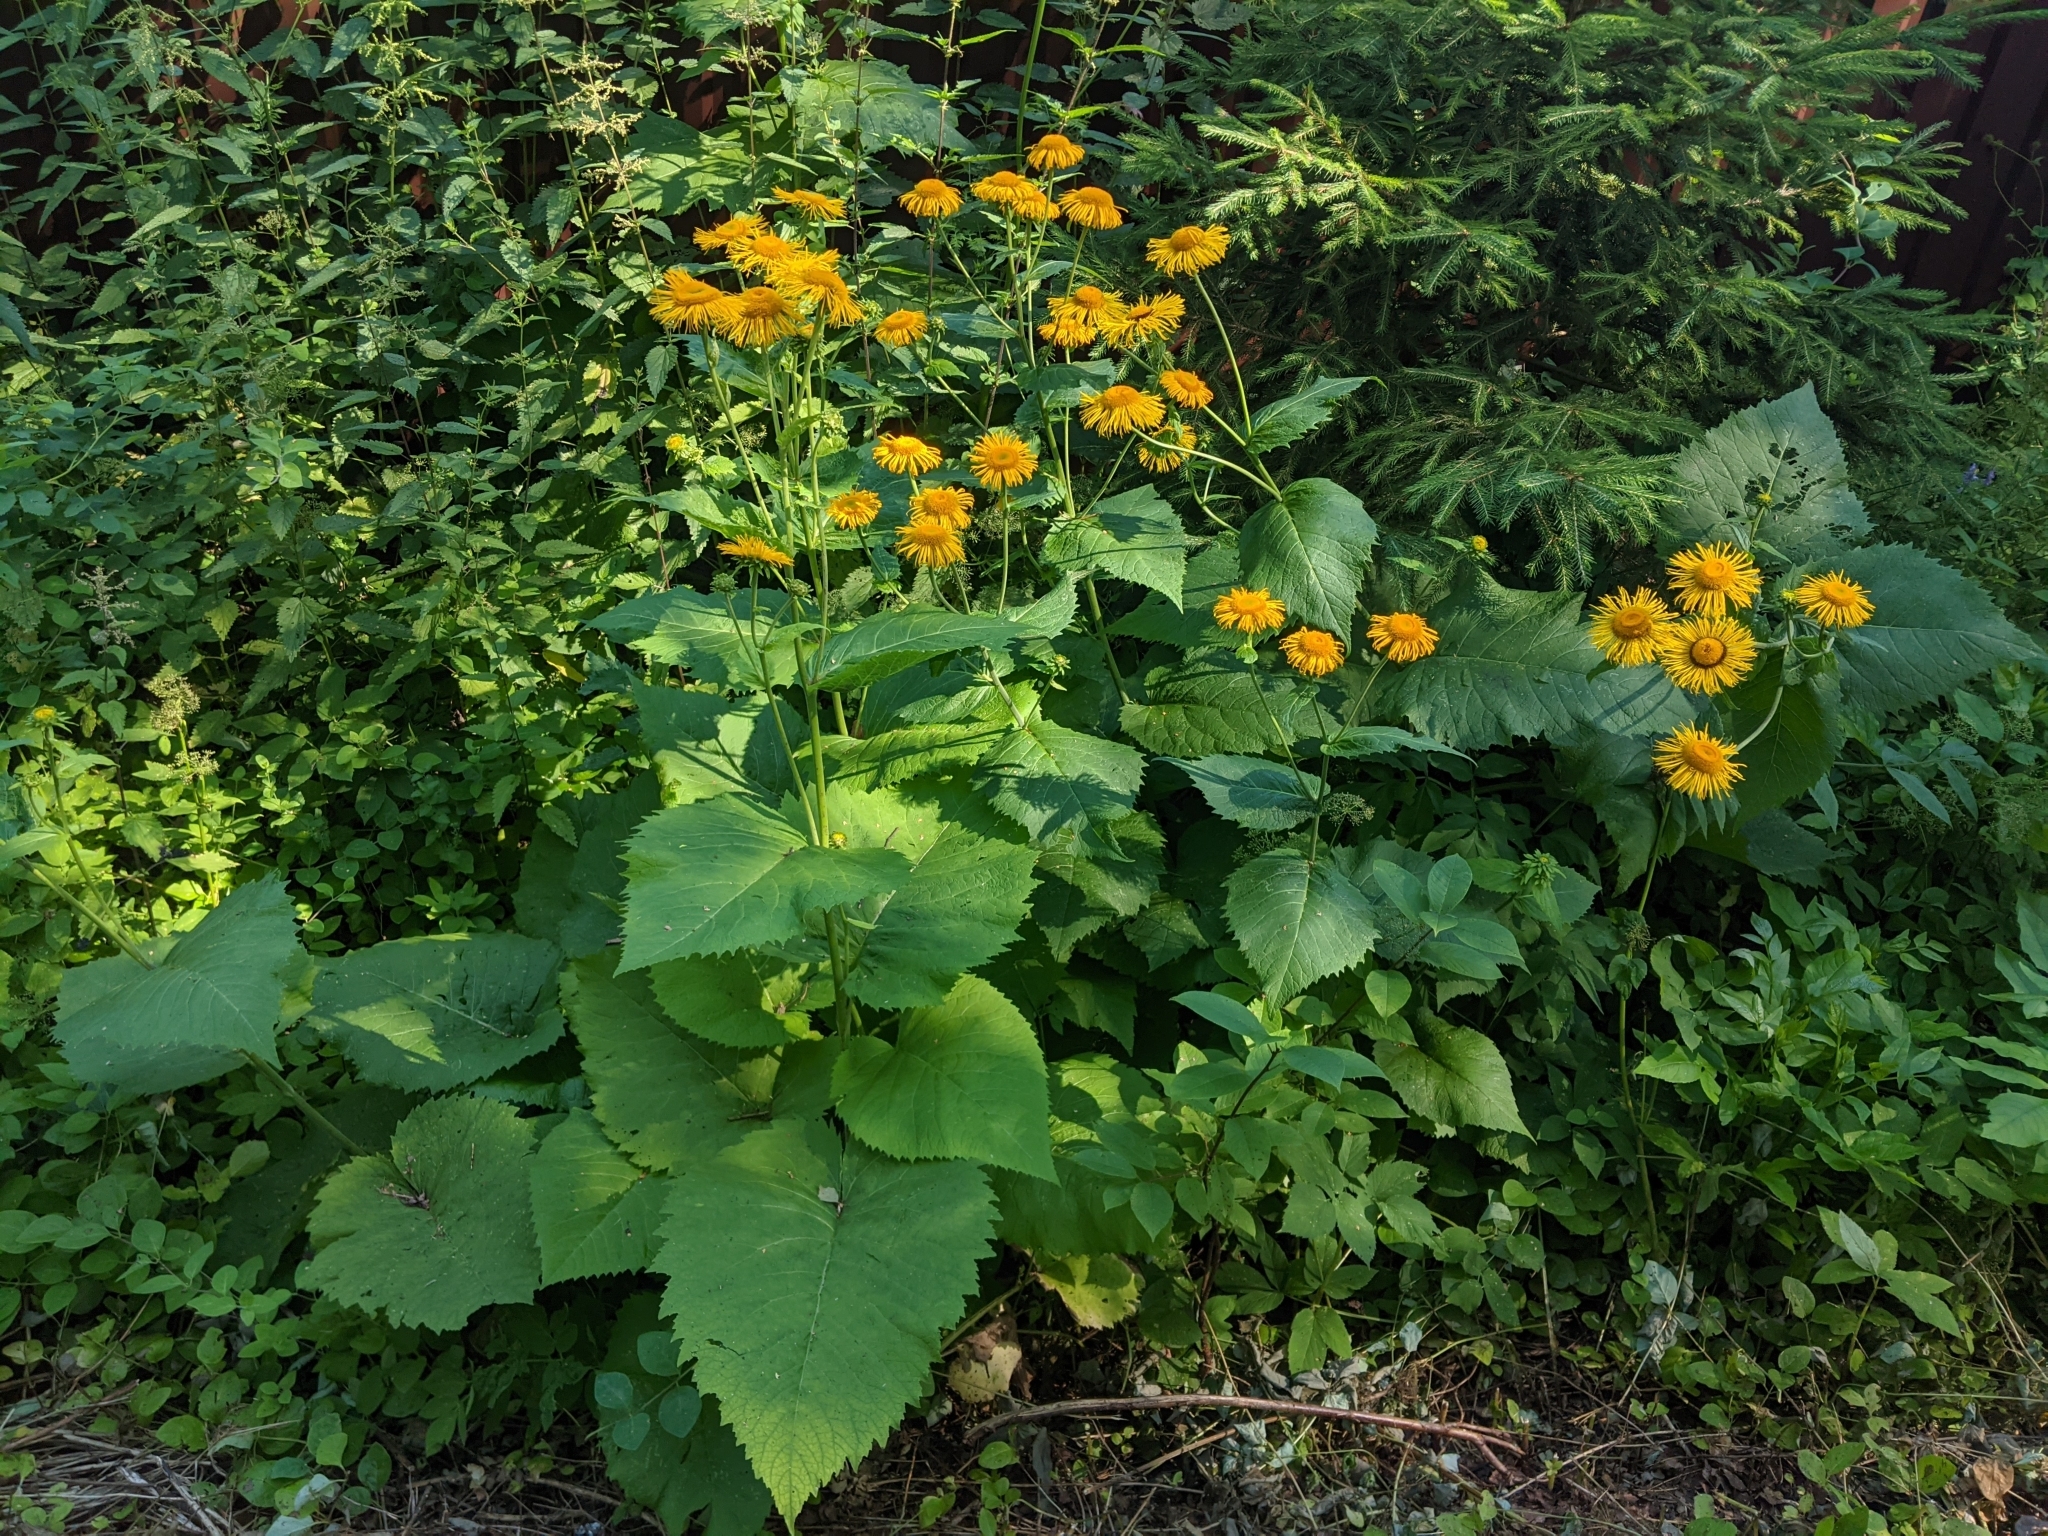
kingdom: Plantae
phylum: Tracheophyta
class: Magnoliopsida
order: Asterales
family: Asteraceae
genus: Telekia
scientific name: Telekia speciosa
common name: Yellow oxeye
